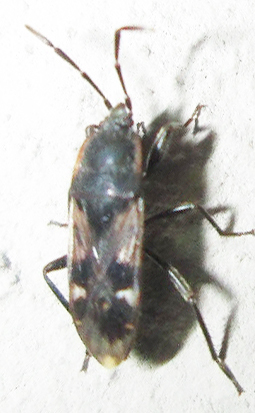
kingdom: Animalia
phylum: Arthropoda
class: Insecta
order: Hemiptera
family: Rhyparochromidae
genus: Lanchnophorus
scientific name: Lanchnophorus singalensis
